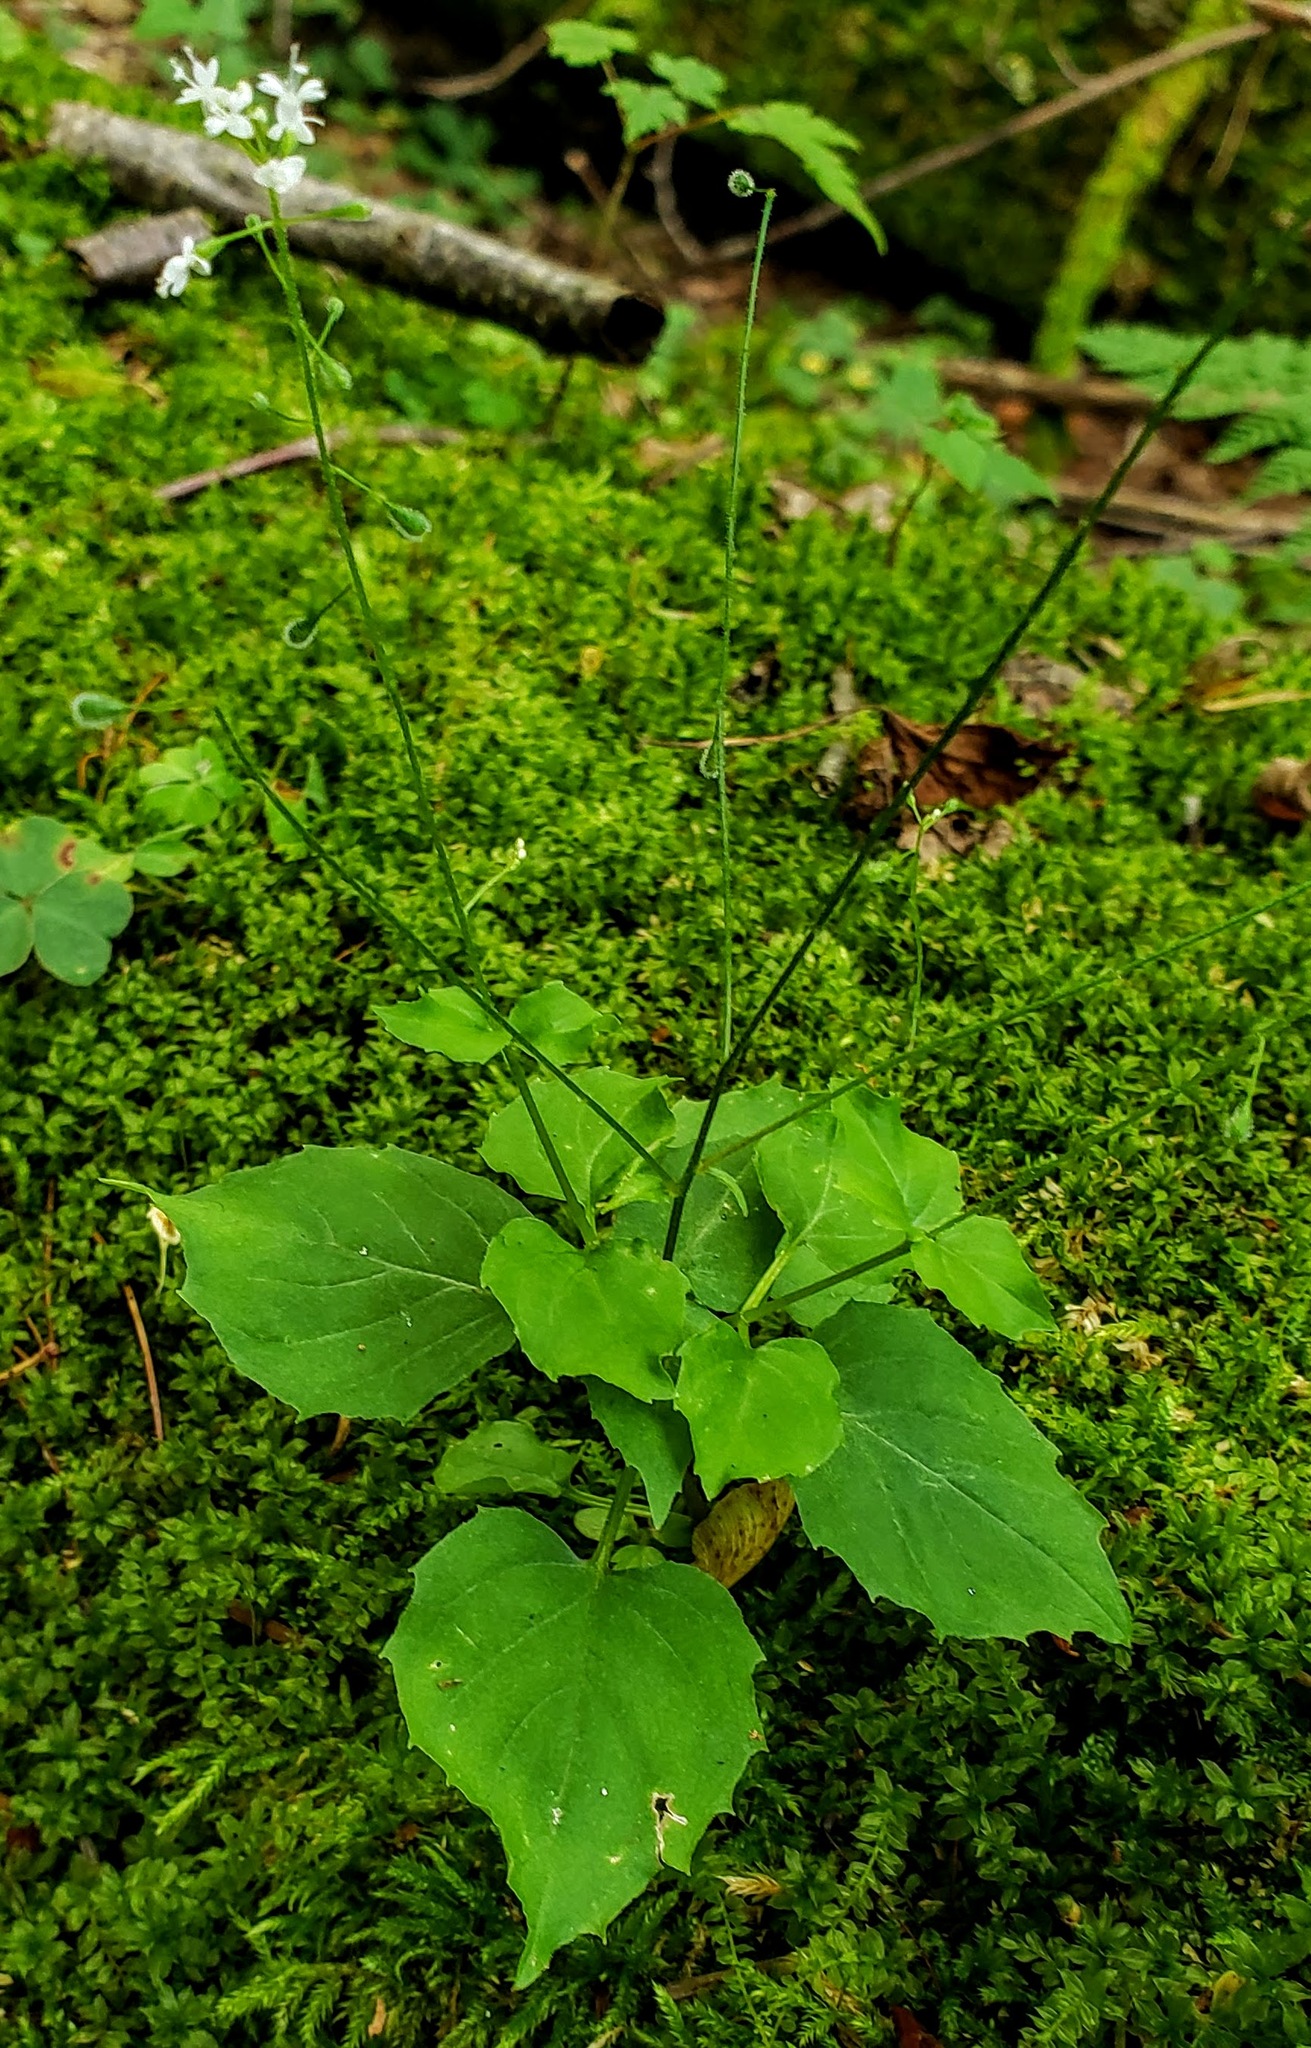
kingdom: Plantae
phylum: Tracheophyta
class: Magnoliopsida
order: Myrtales
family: Onagraceae
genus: Circaea
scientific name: Circaea alpina
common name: Alpine enchanter's-nightshade
